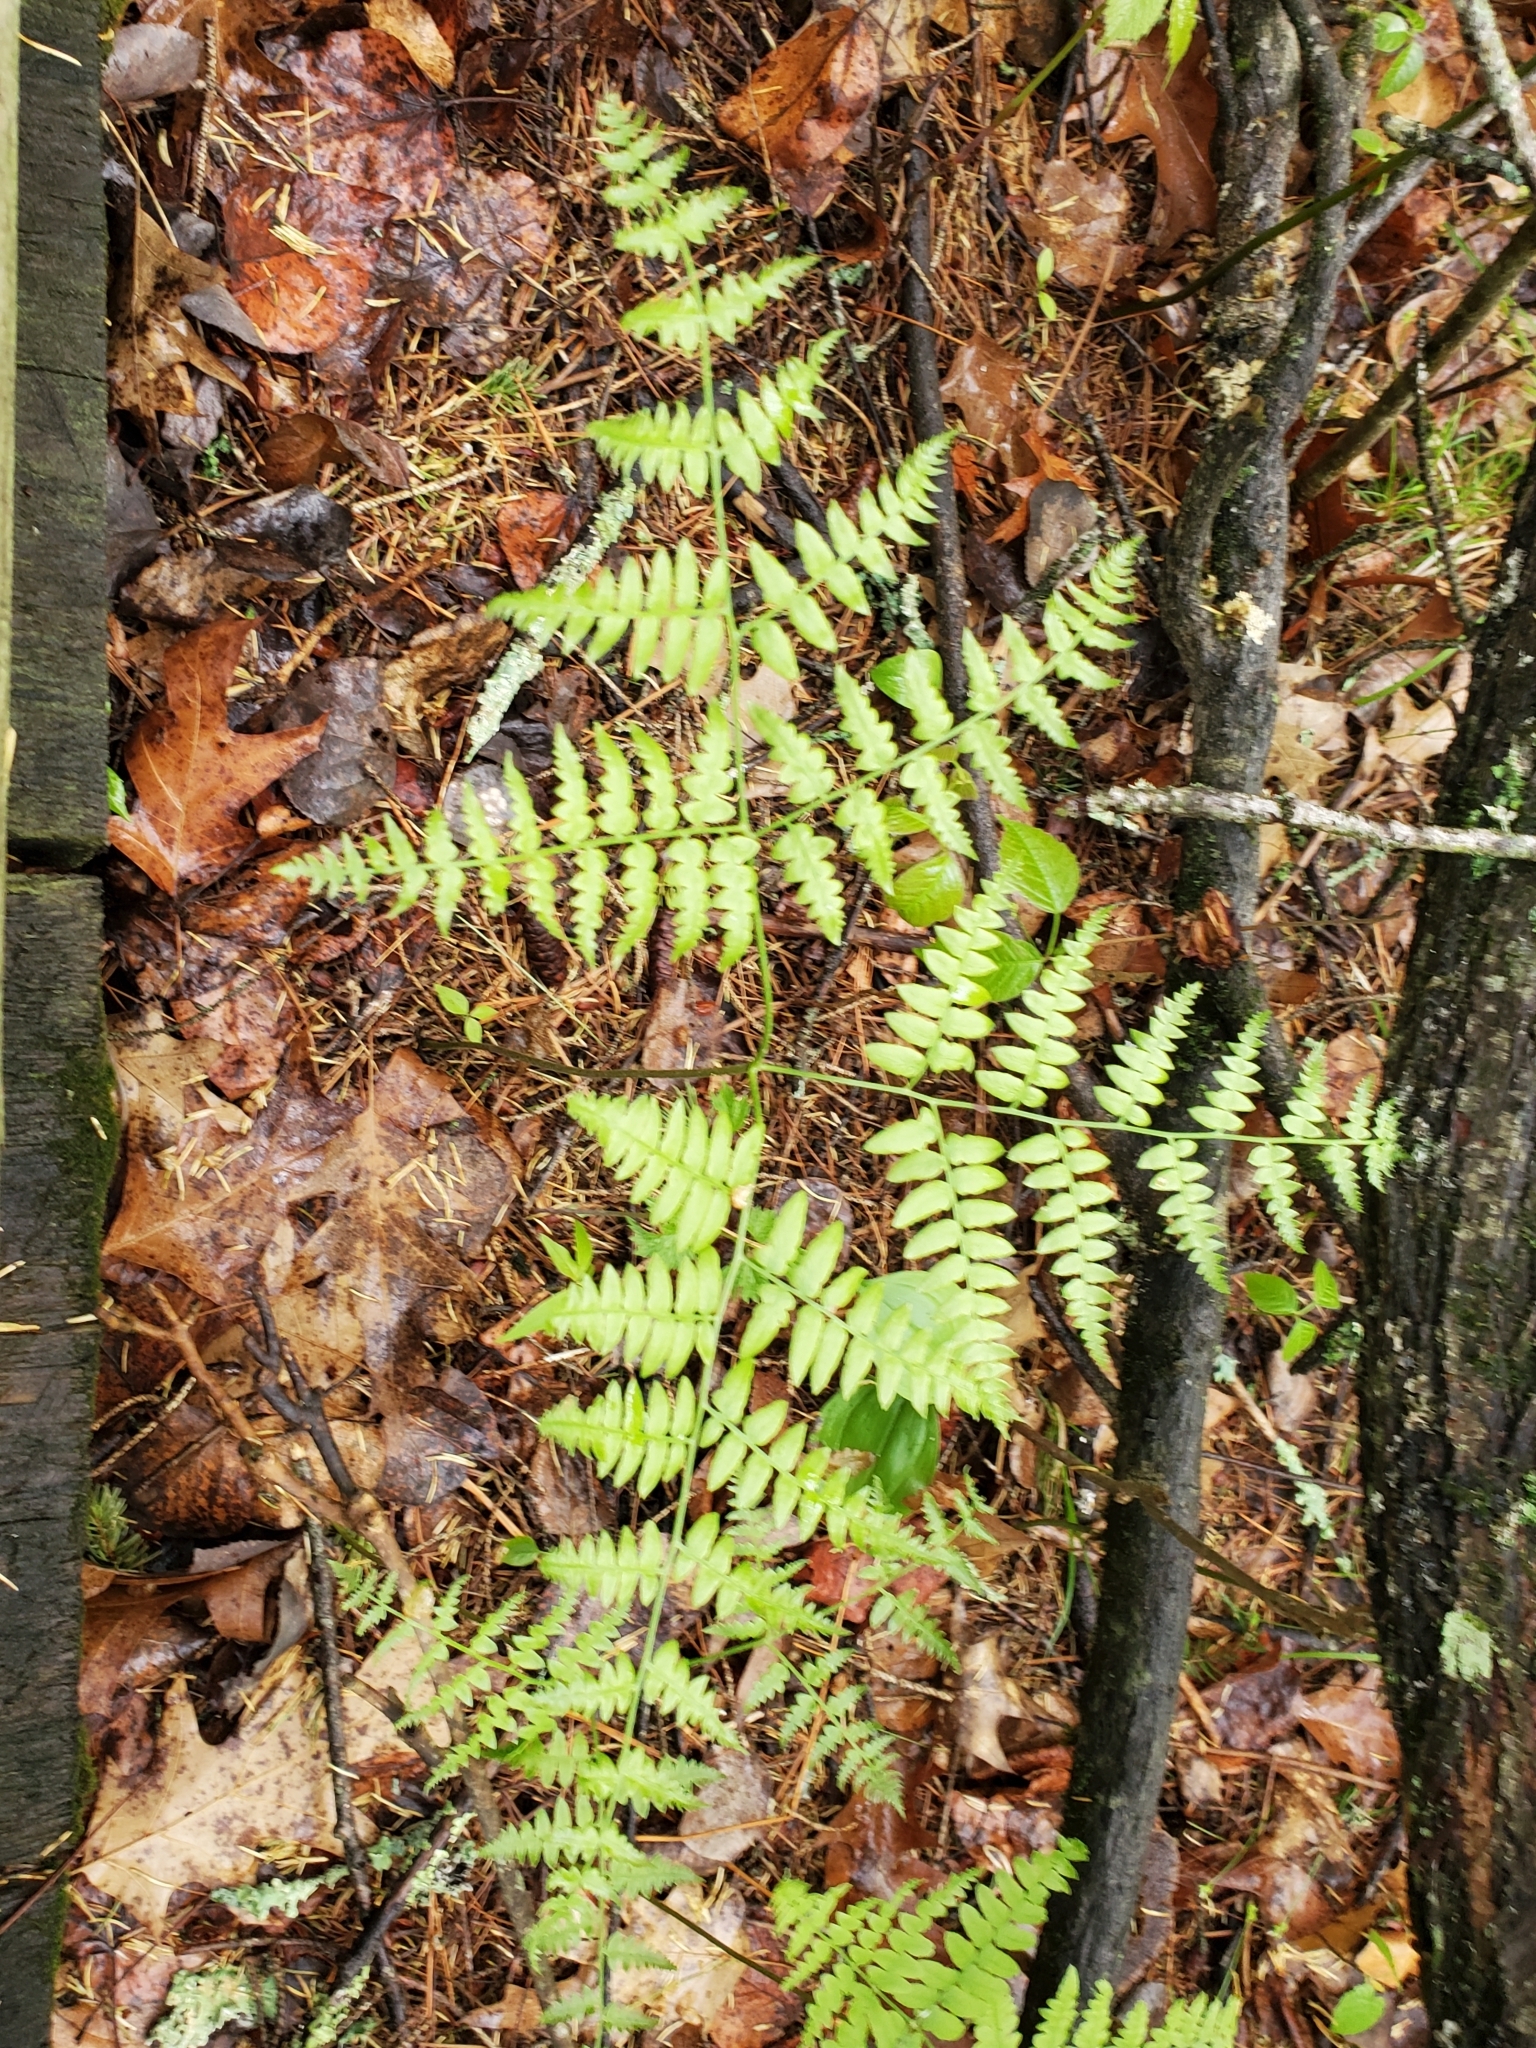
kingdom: Plantae
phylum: Tracheophyta
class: Polypodiopsida
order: Polypodiales
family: Dennstaedtiaceae
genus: Pteridium
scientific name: Pteridium aquilinum
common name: Bracken
